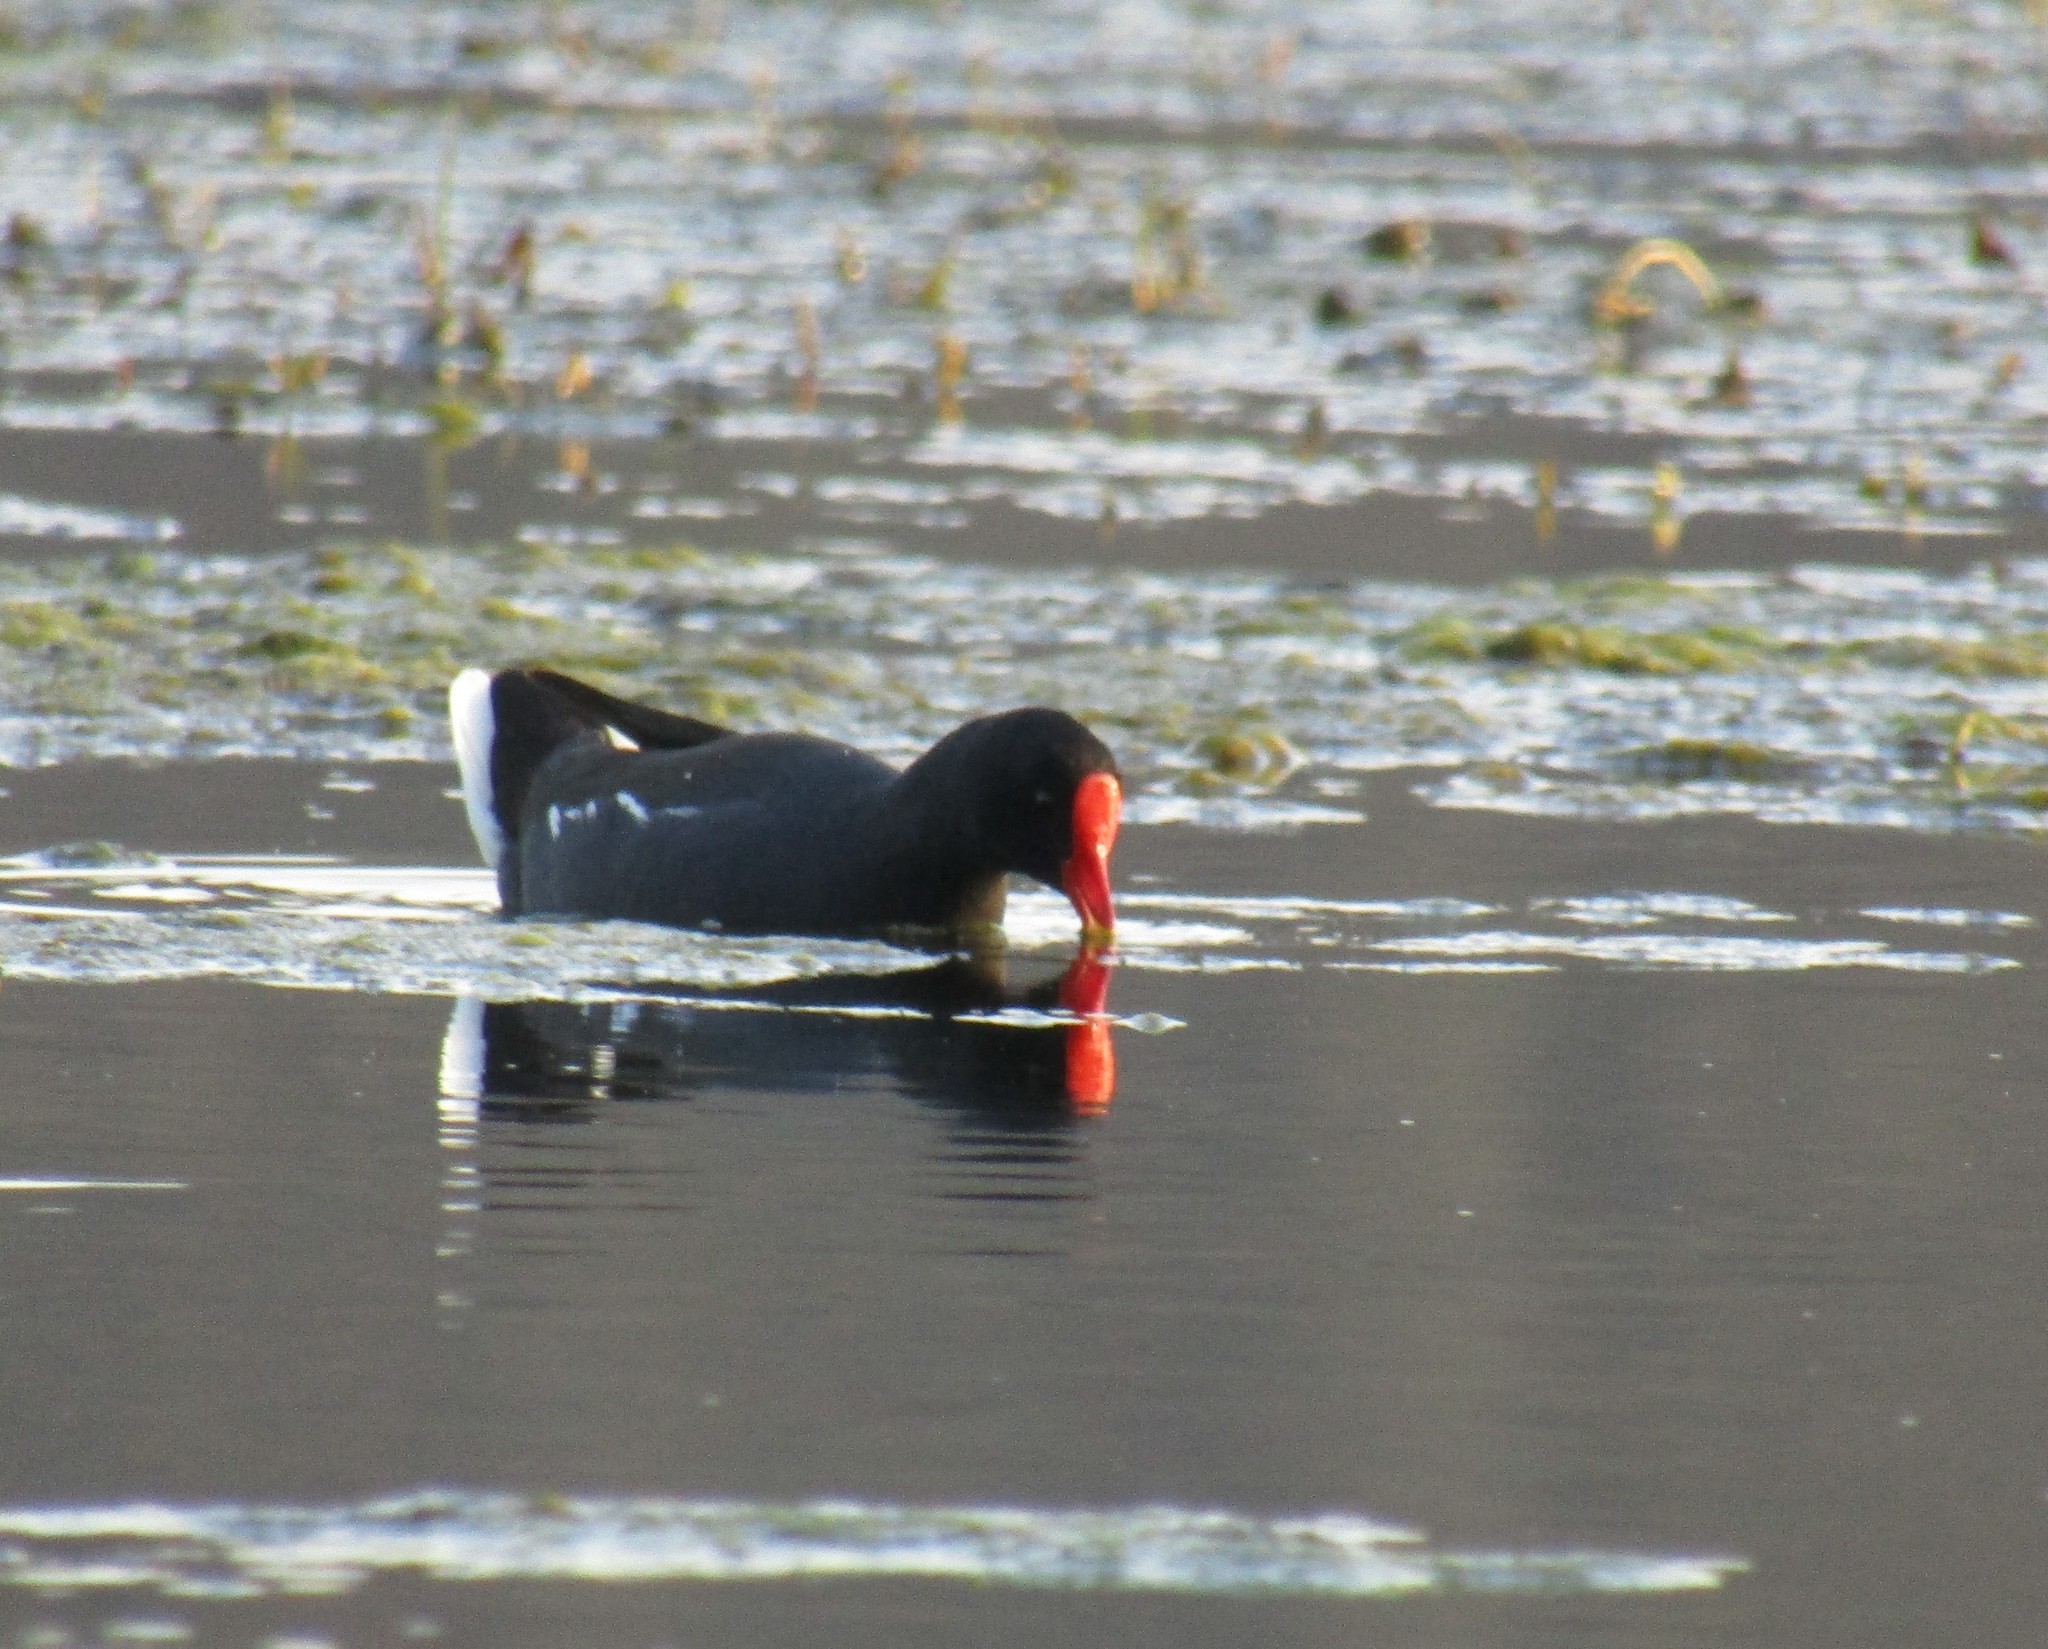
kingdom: Animalia
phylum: Chordata
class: Aves
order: Gruiformes
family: Rallidae
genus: Gallinula
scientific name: Gallinula chloropus
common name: Common moorhen
